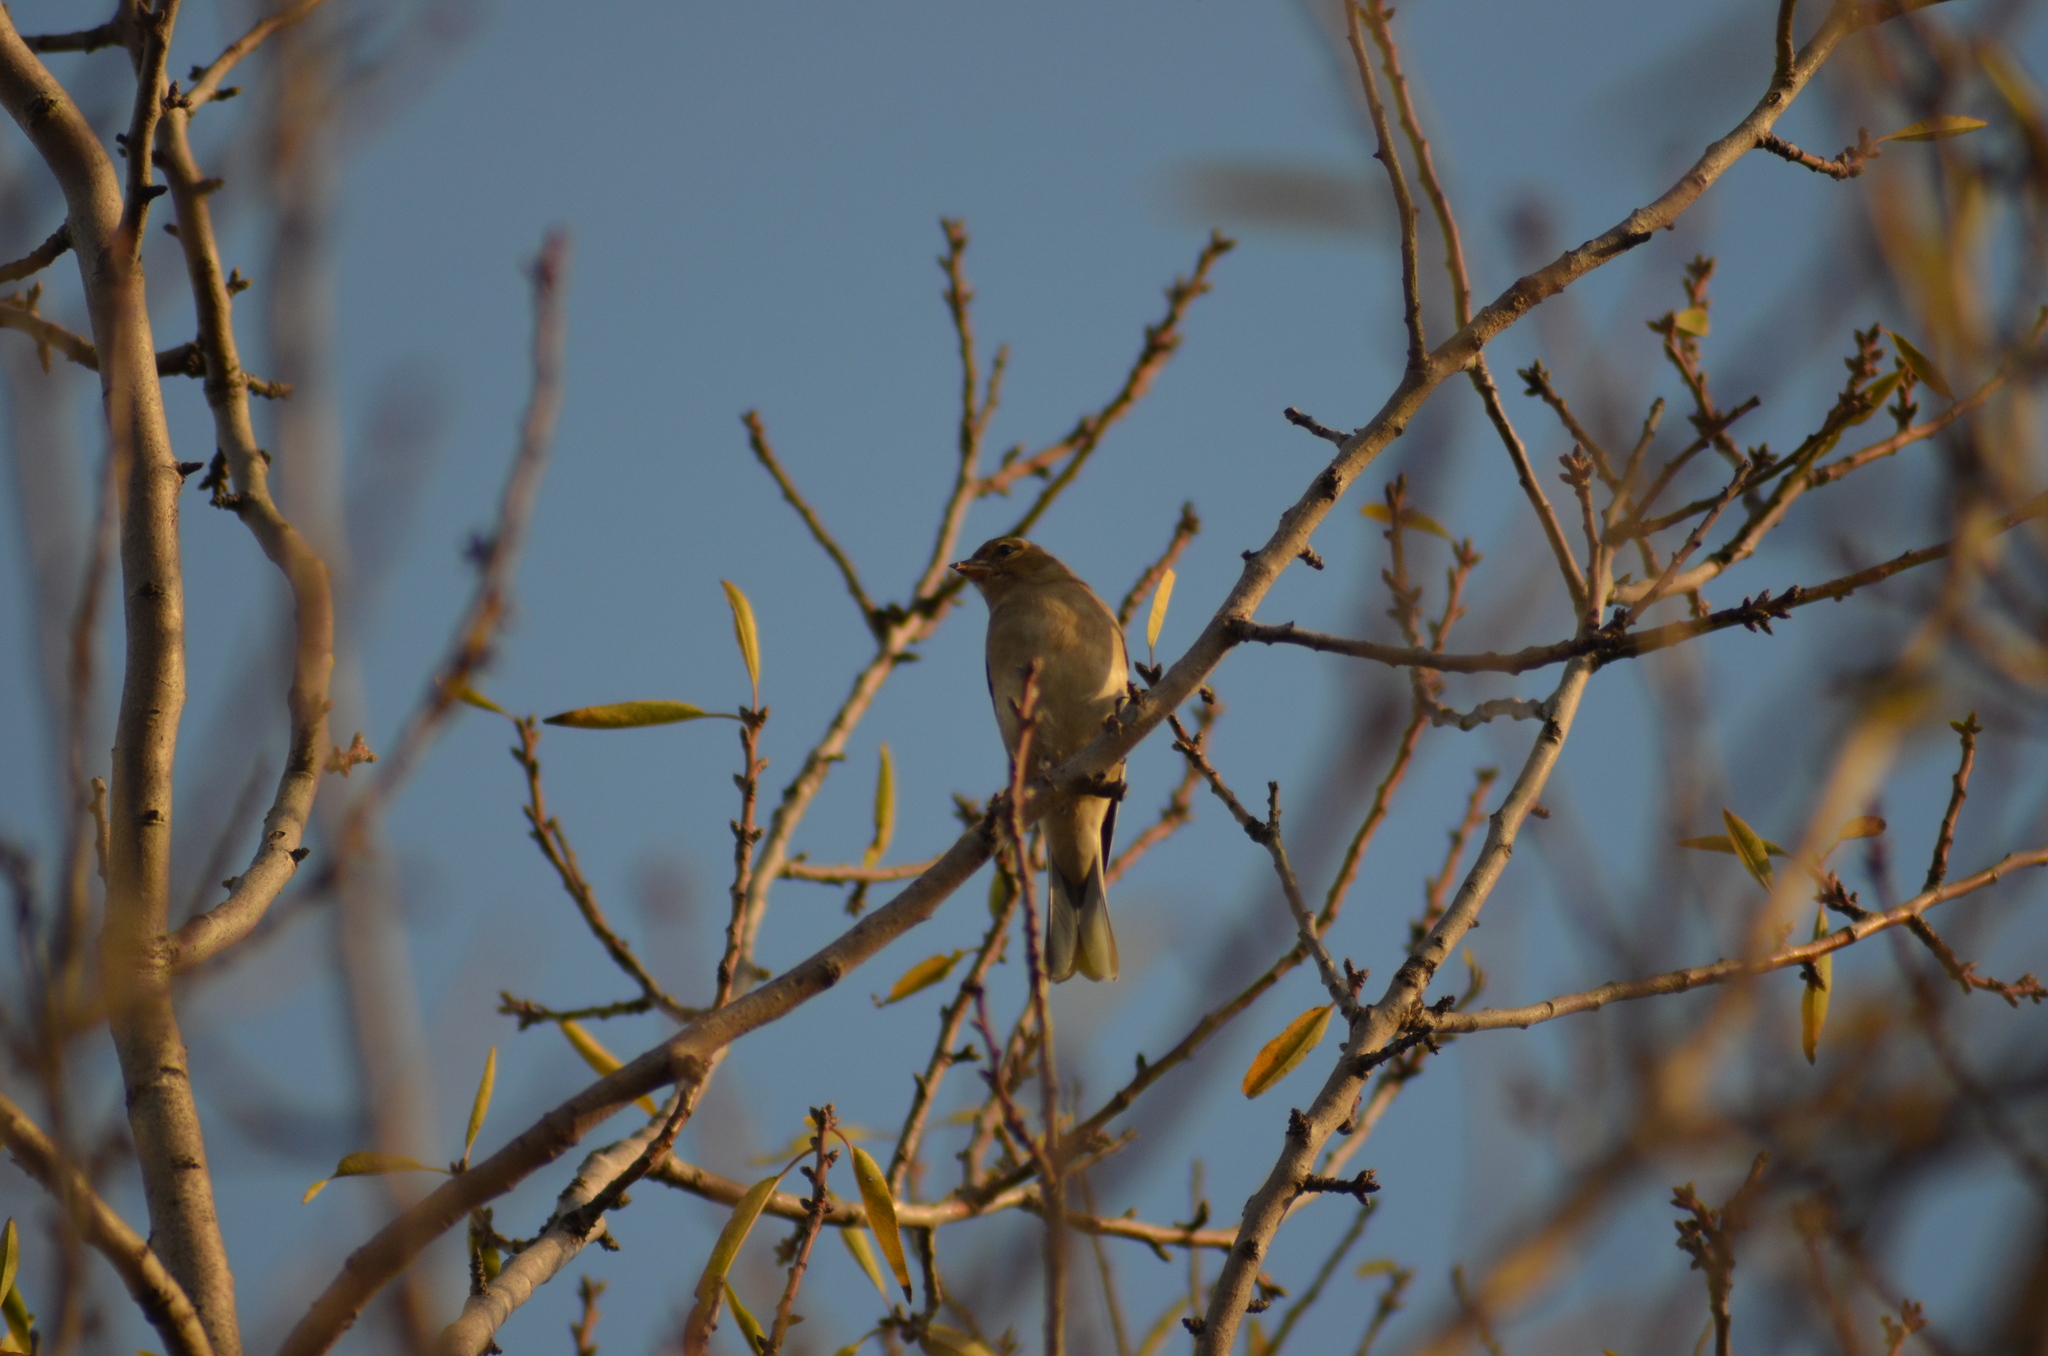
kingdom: Animalia
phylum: Chordata
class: Aves
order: Passeriformes
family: Fringillidae
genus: Fringilla
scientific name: Fringilla coelebs
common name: Common chaffinch
